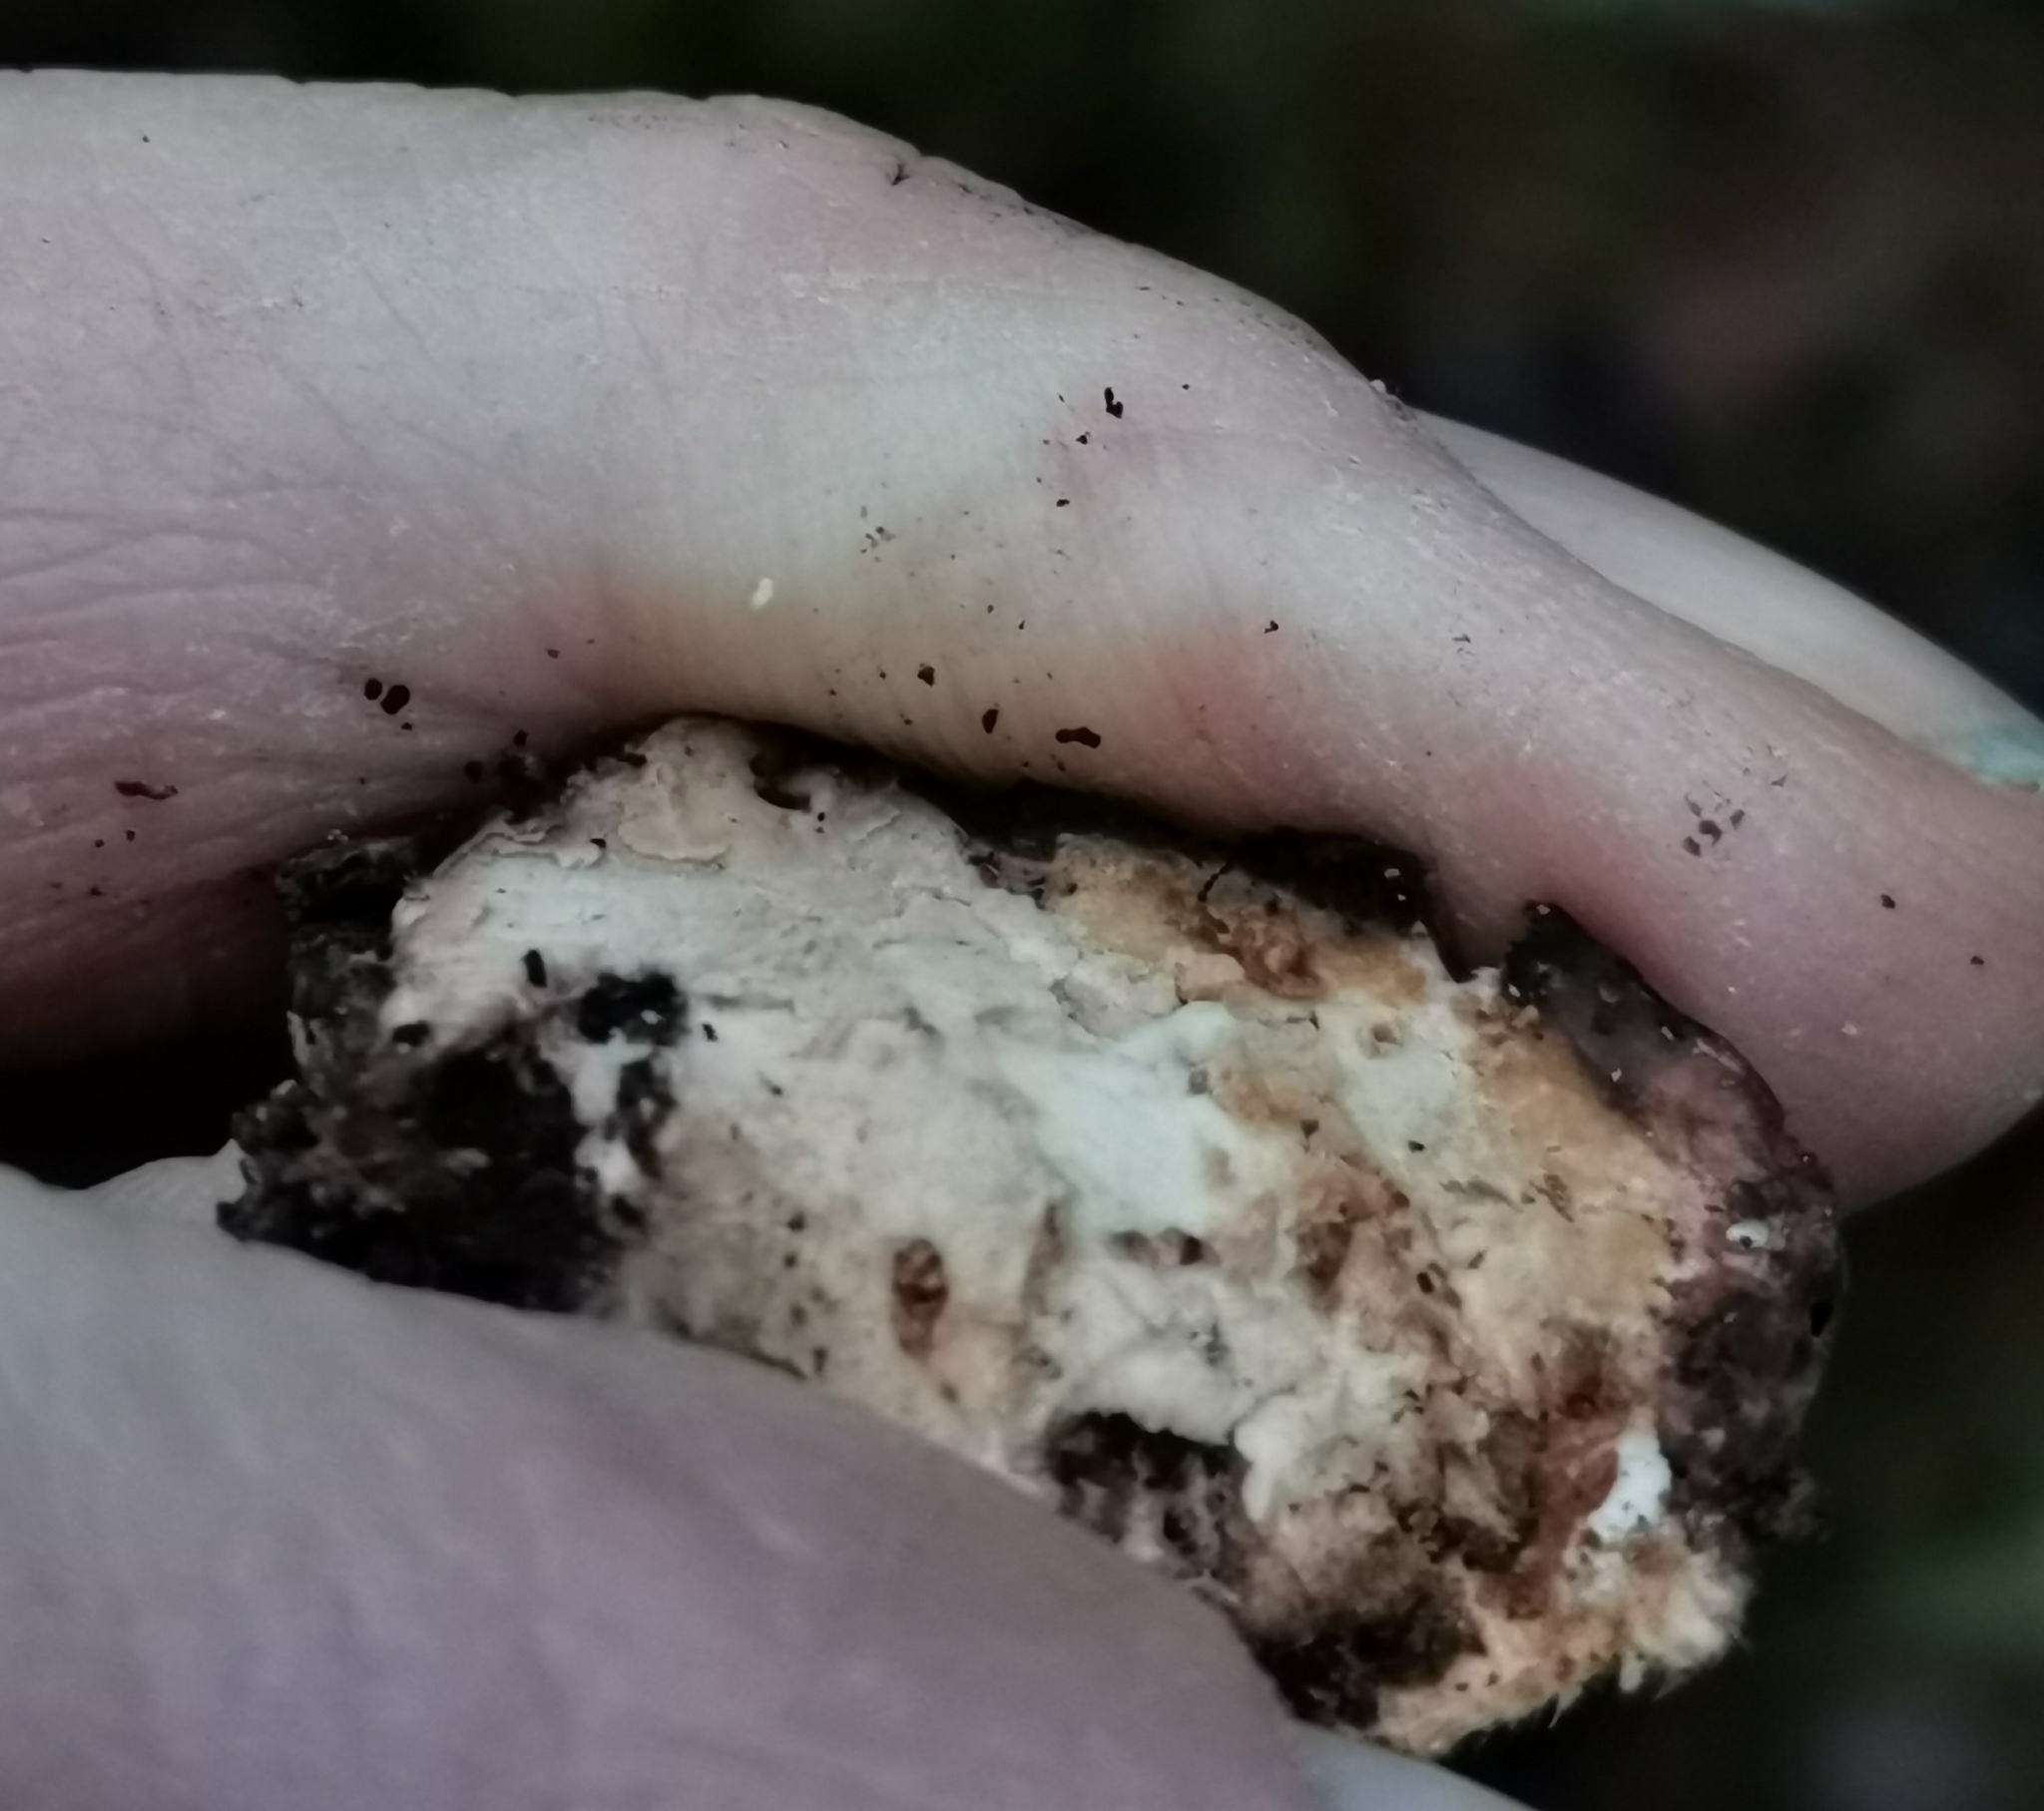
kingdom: Fungi
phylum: Basidiomycota
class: Agaricomycetes
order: Polyporales
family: Fomitopsidaceae
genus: Fomitopsis
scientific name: Fomitopsis pinicola
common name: Red-belted bracket
